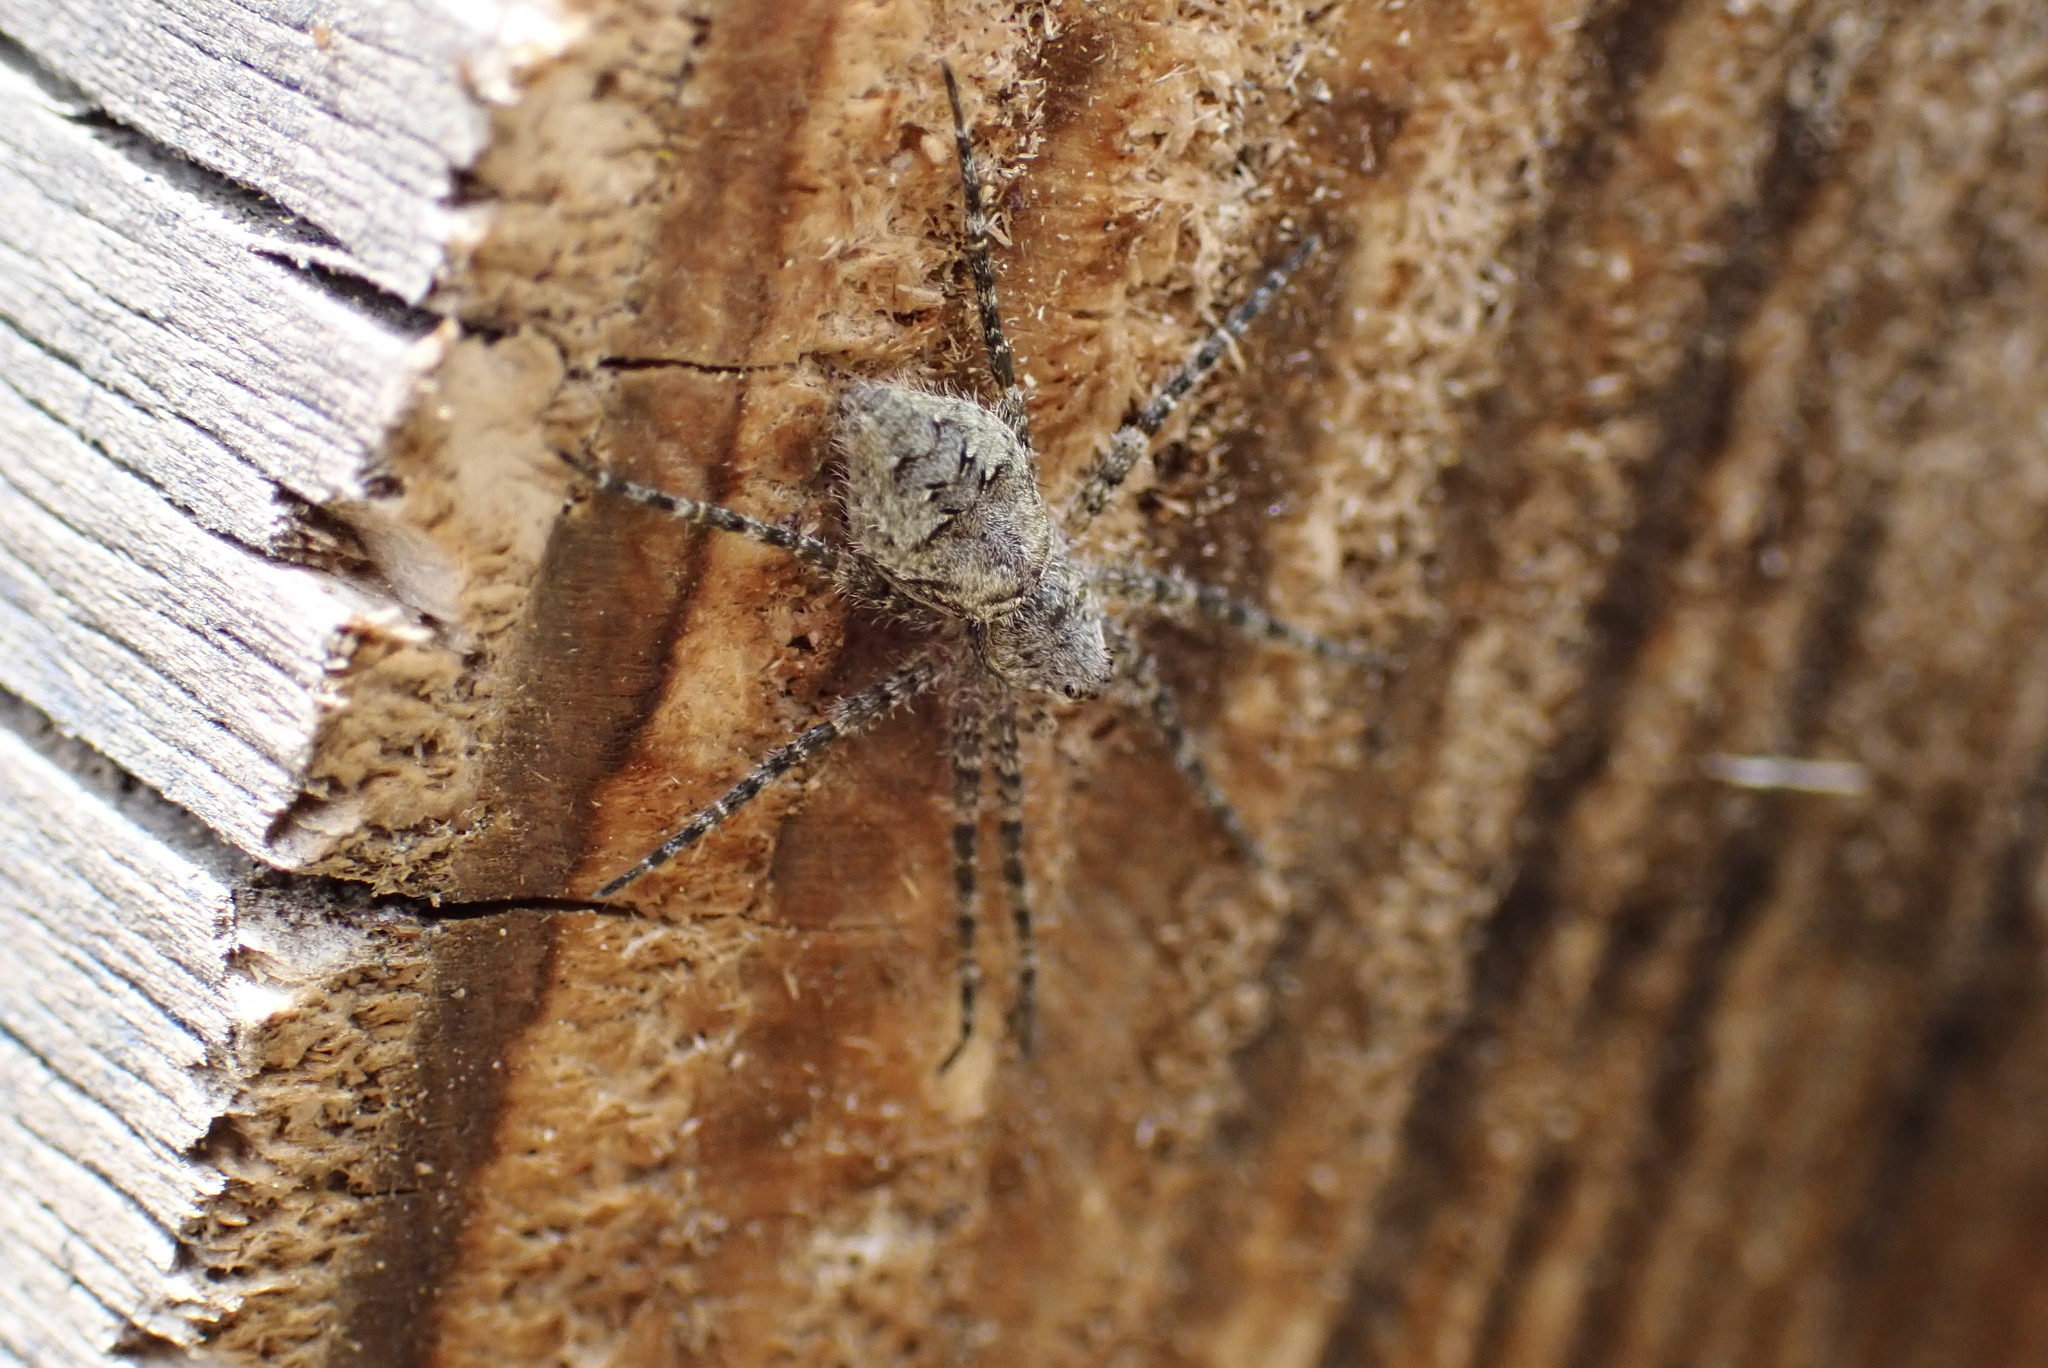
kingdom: Animalia
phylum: Arthropoda
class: Arachnida
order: Araneae
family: Pisauridae
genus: Dolomedes
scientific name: Dolomedes albineus
